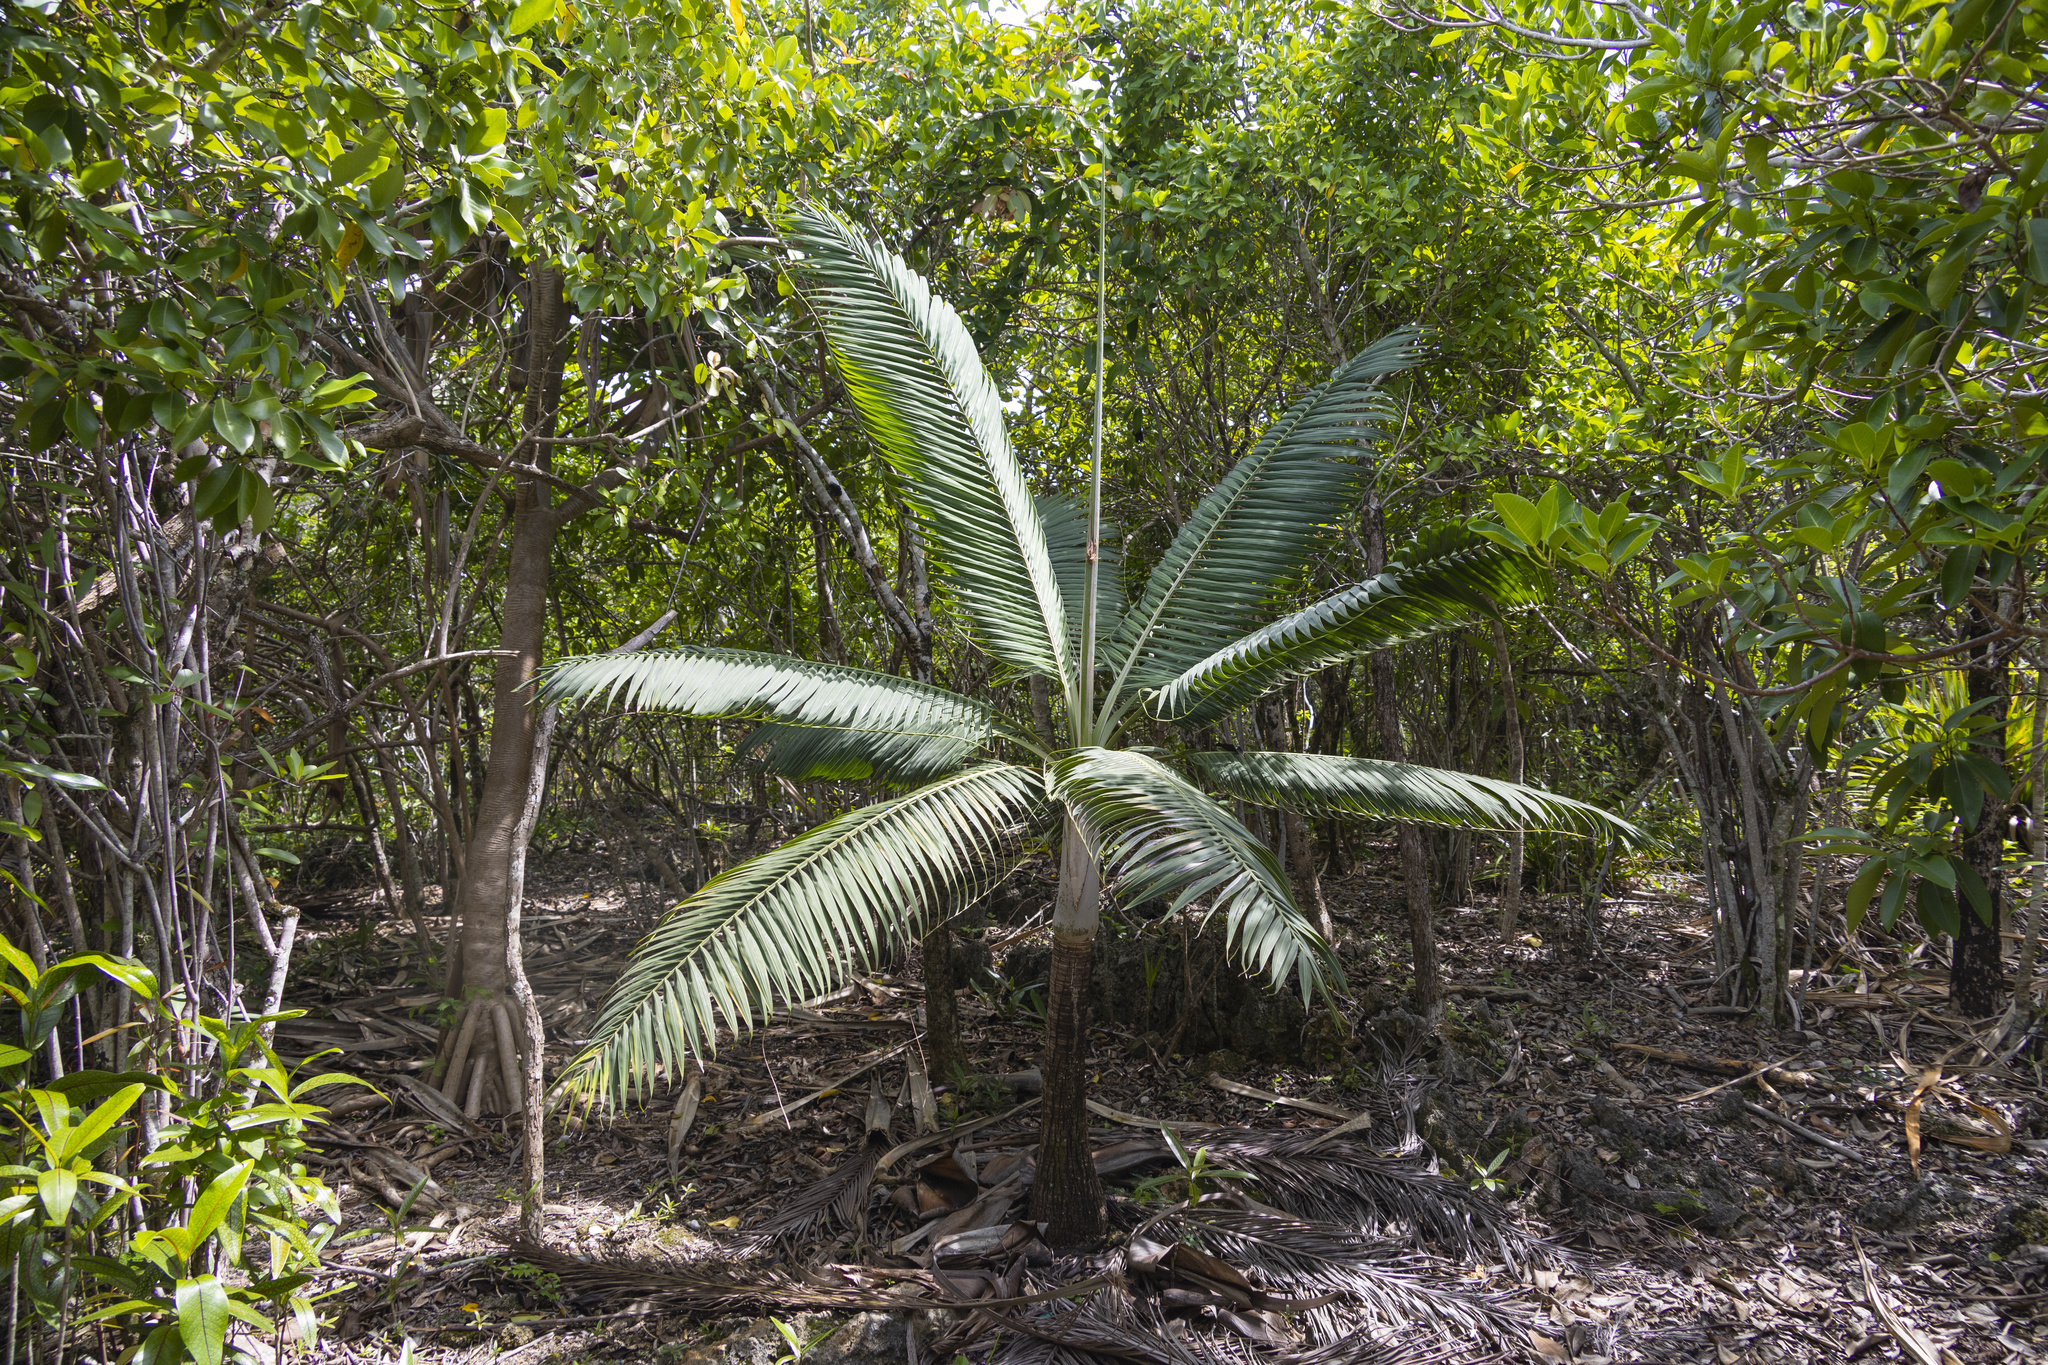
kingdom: Plantae
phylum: Tracheophyta
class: Liliopsida
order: Arecales
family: Arecaceae
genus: Dictyosperma
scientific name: Dictyosperma album
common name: Common princess palm
